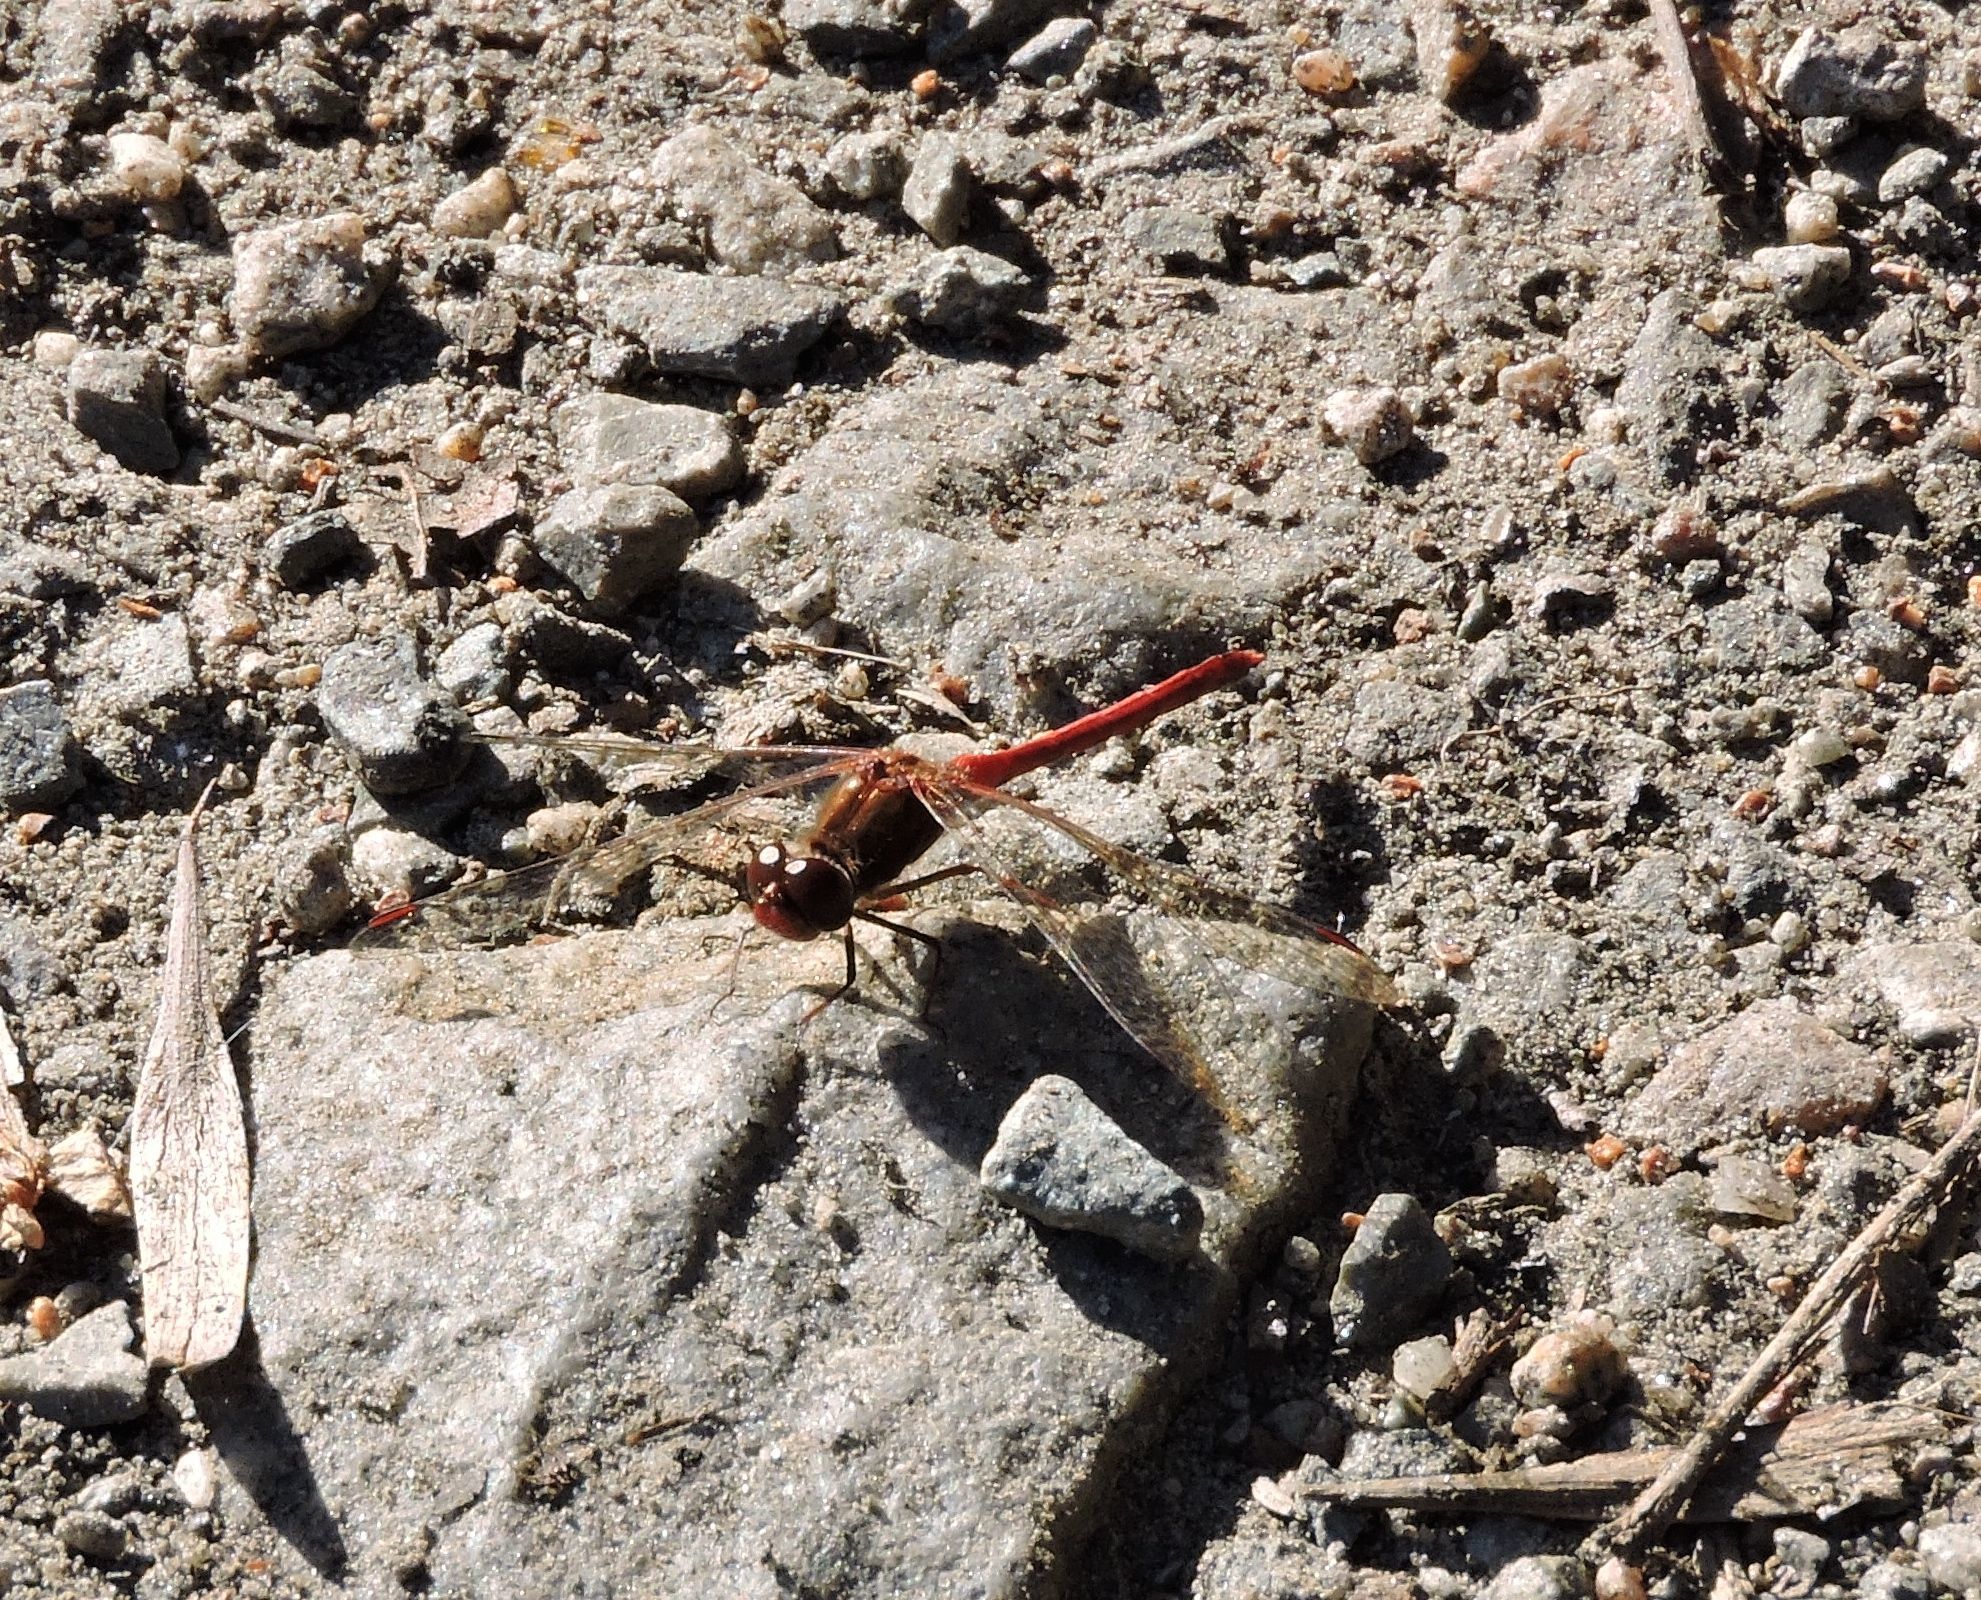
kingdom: Animalia
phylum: Arthropoda
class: Insecta
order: Odonata
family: Libellulidae
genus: Sympetrum
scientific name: Sympetrum vicinum
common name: Autumn meadowhawk
